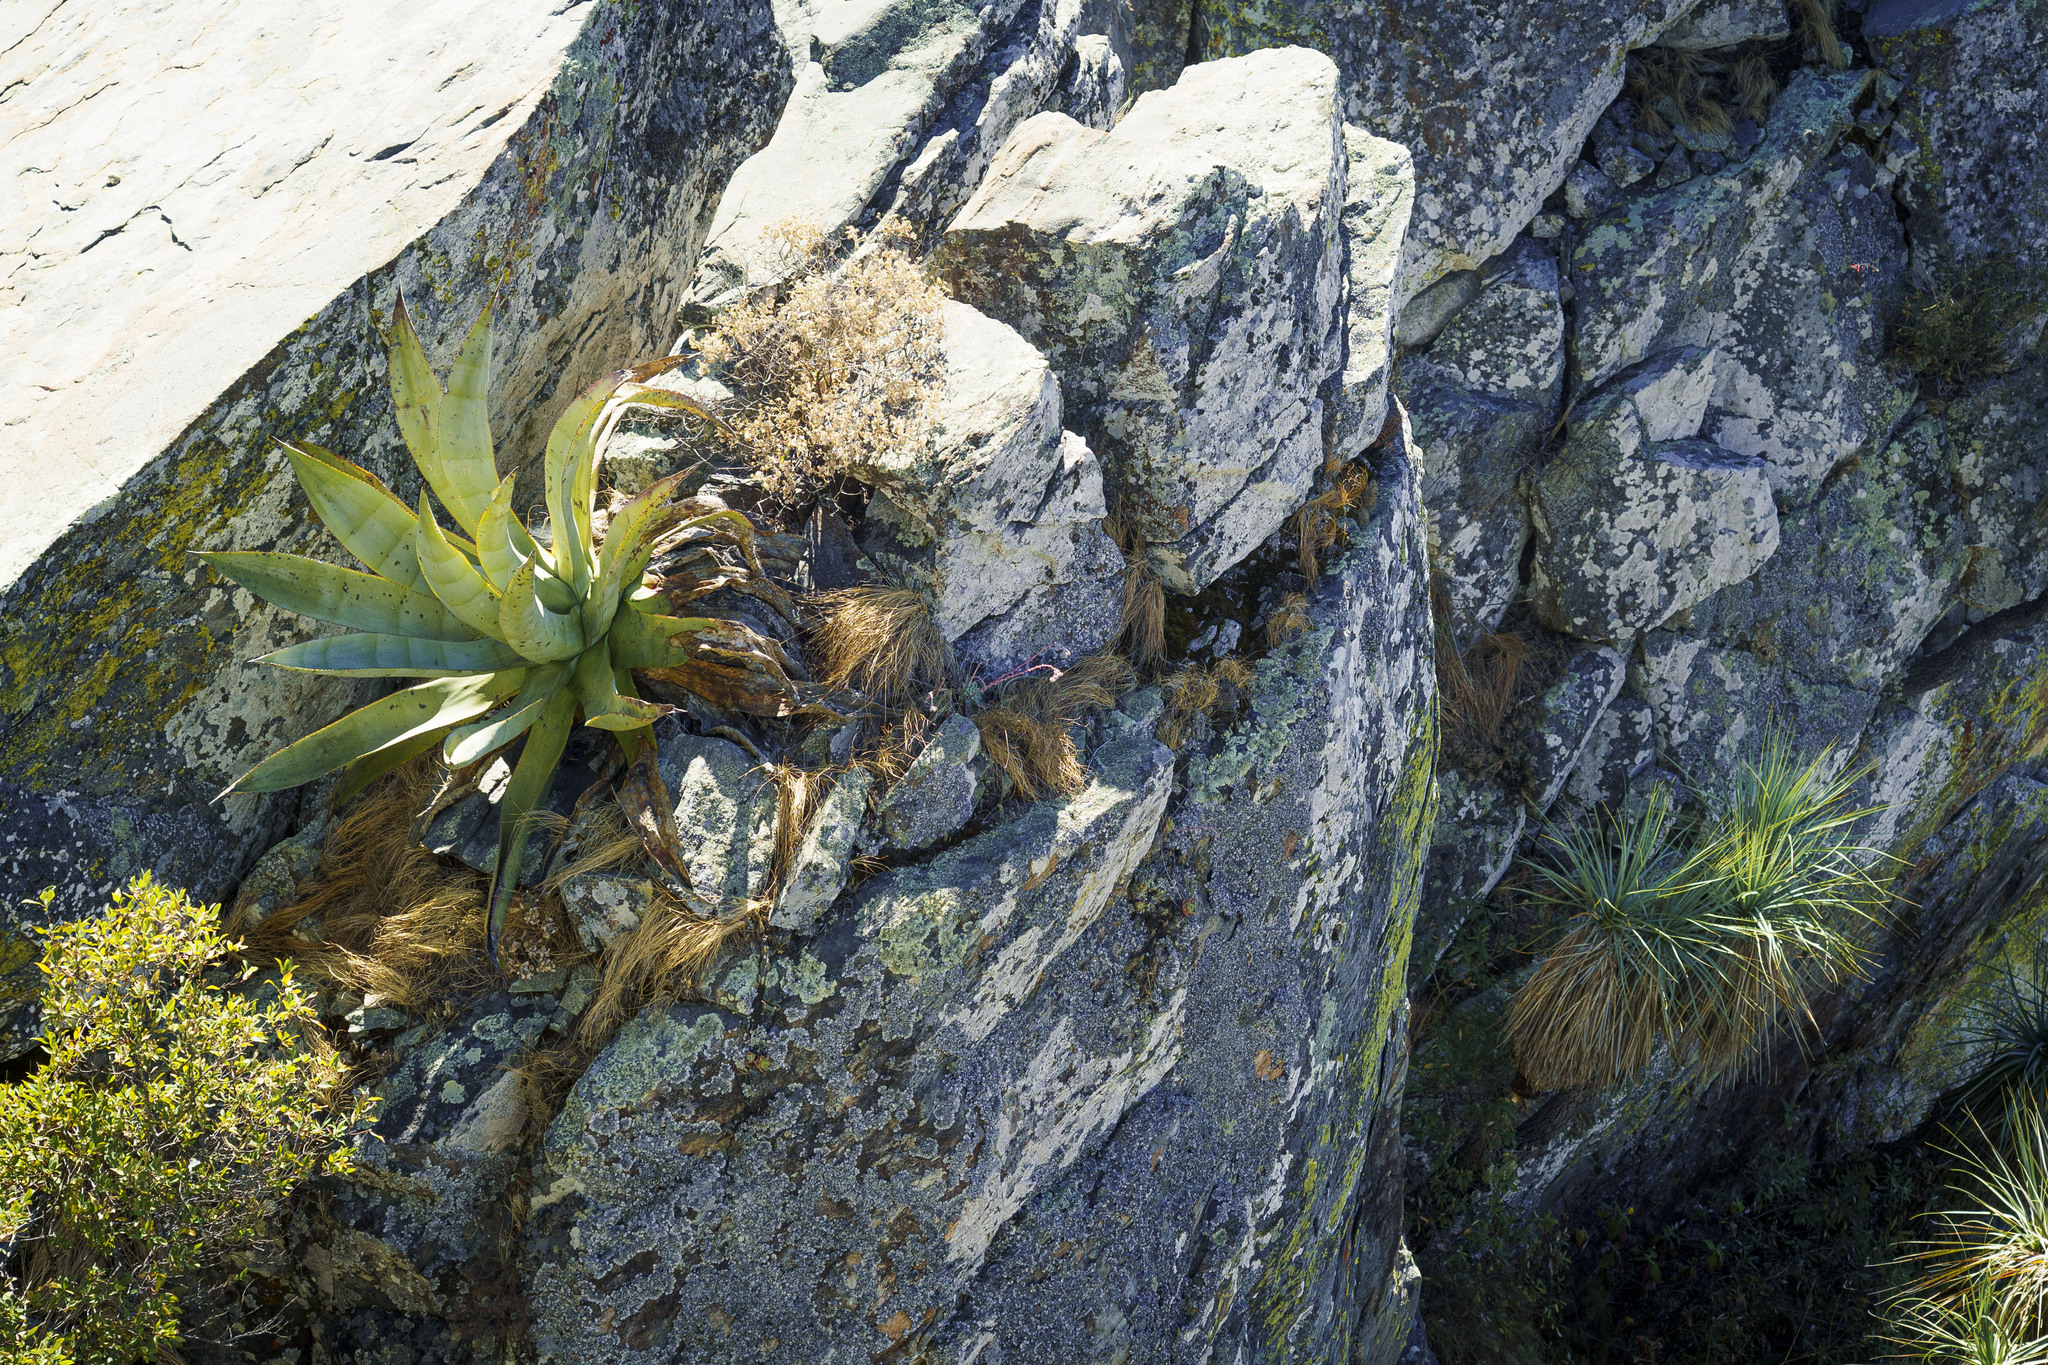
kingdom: Plantae
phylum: Tracheophyta
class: Liliopsida
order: Asparagales
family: Asparagaceae
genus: Nolina
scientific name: Nolina beldingii
